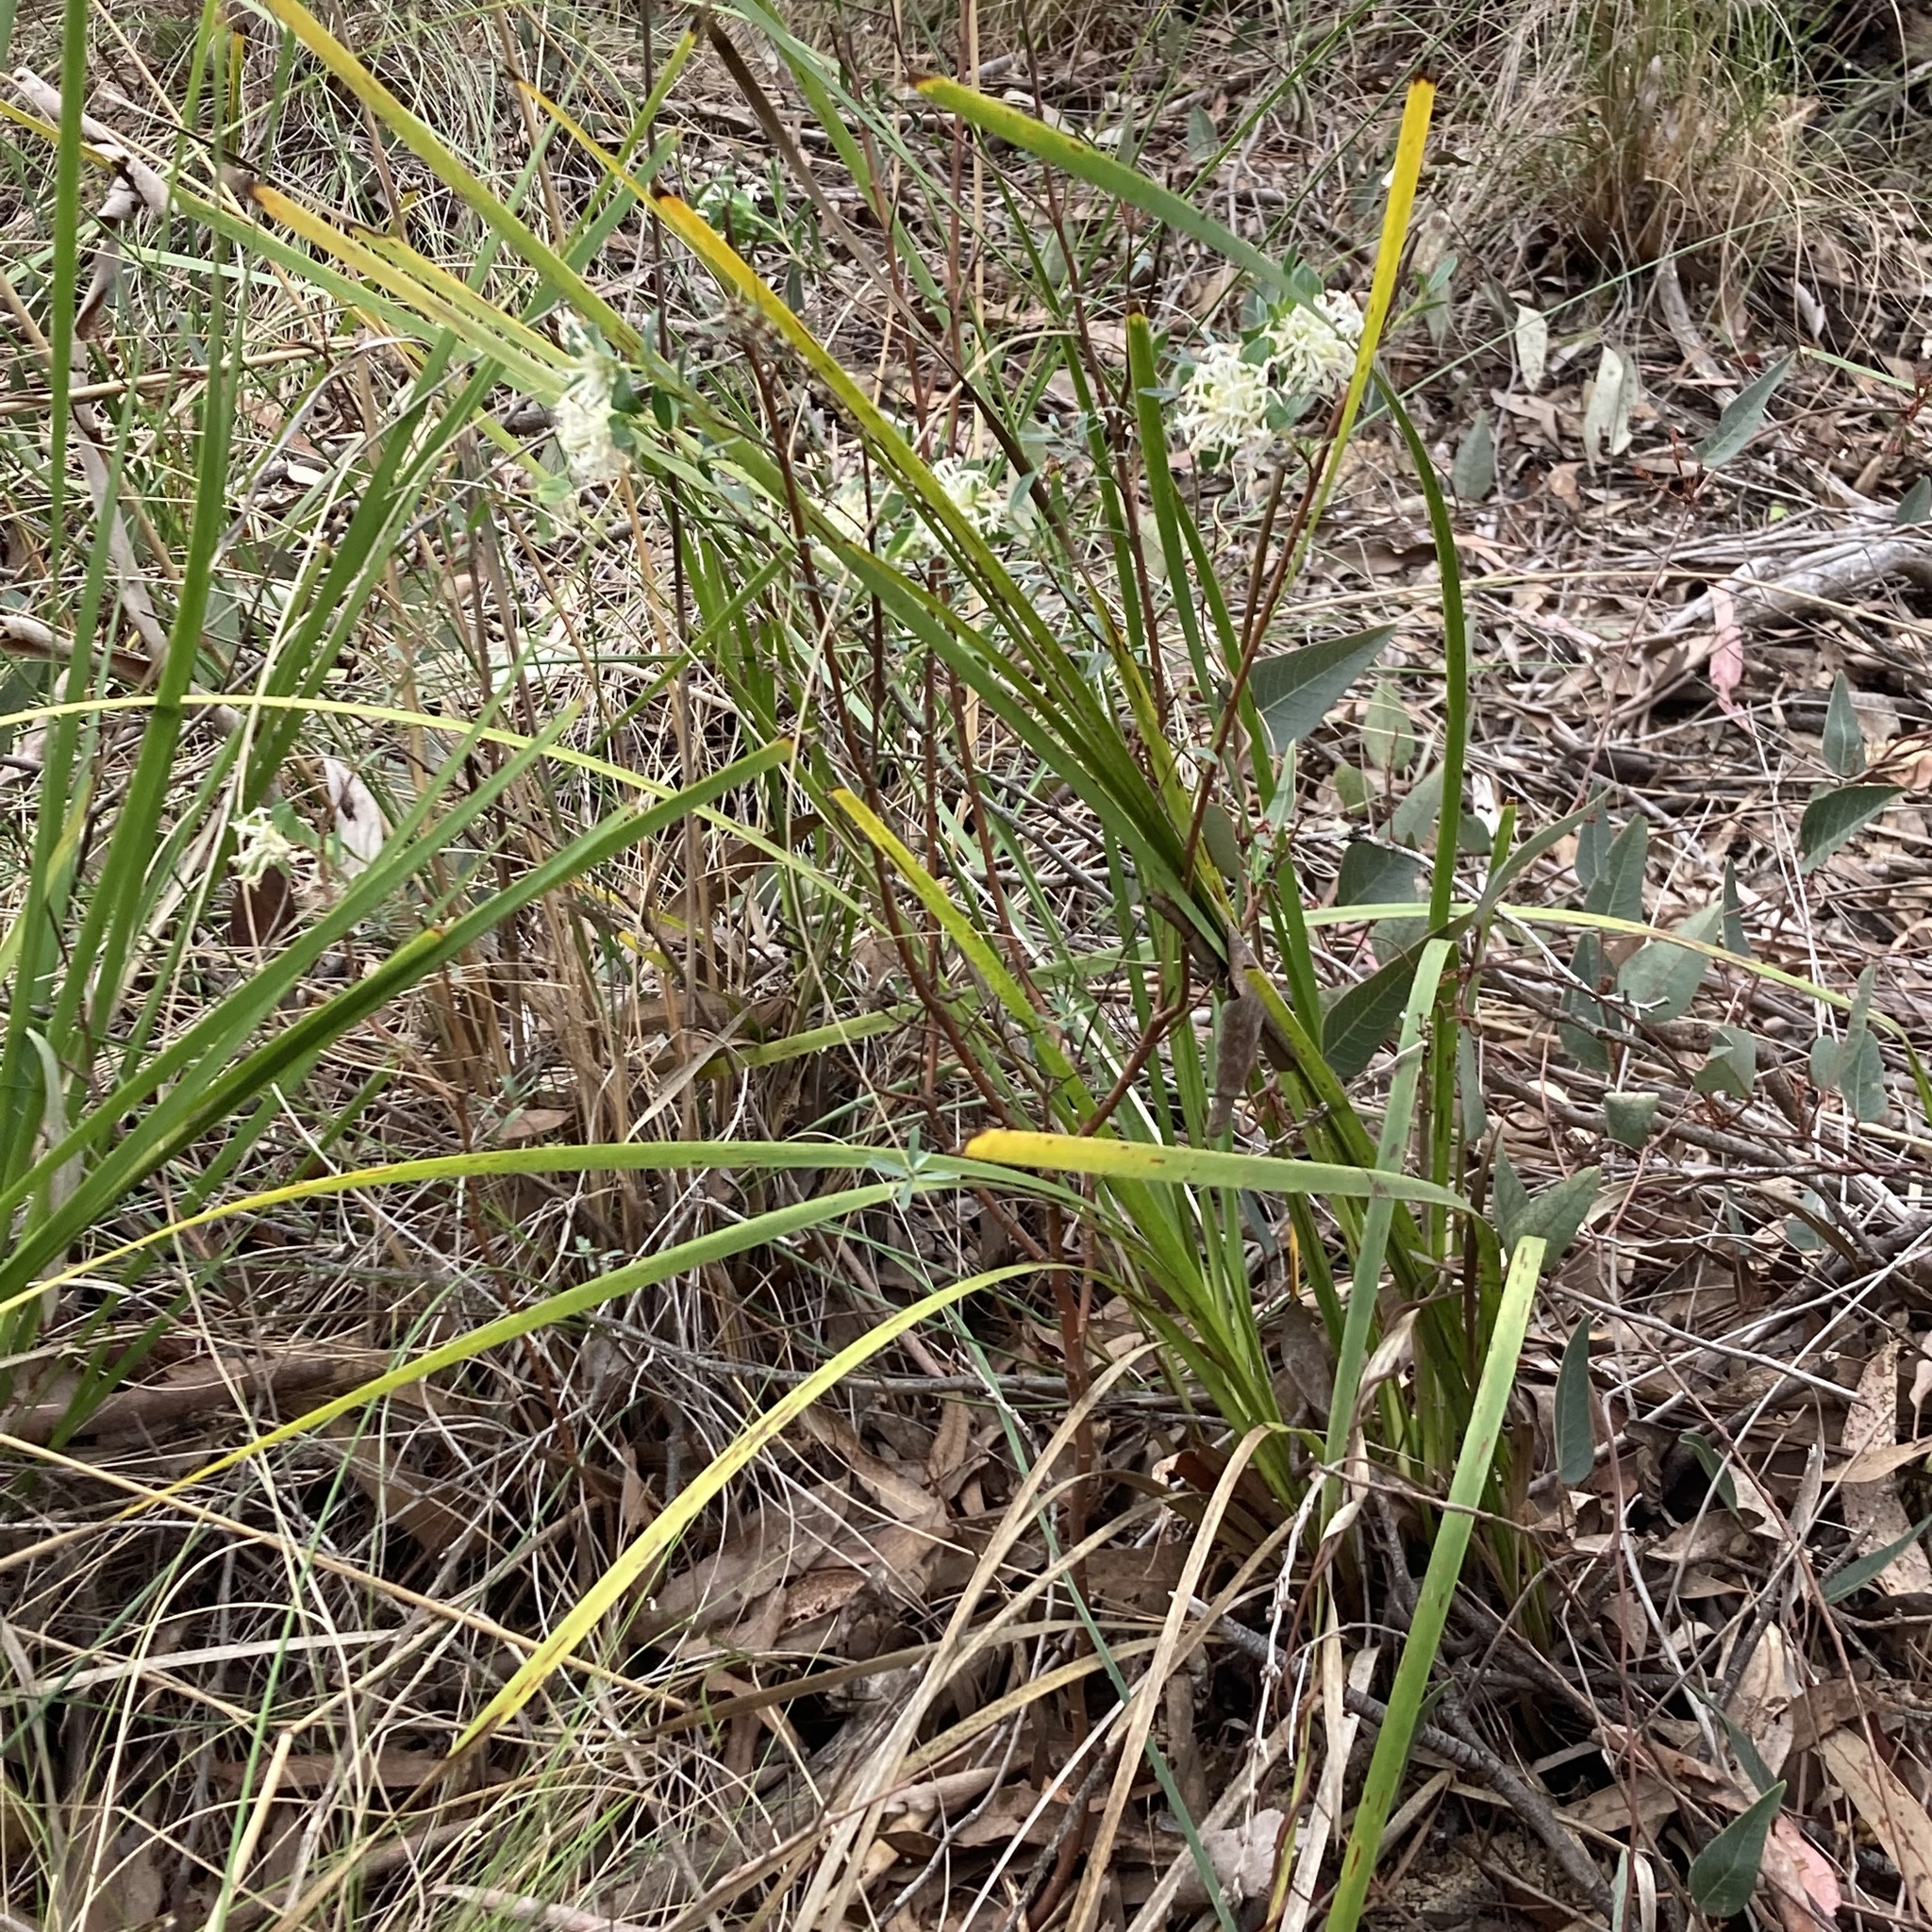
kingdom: Plantae
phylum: Tracheophyta
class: Magnoliopsida
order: Malvales
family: Thymelaeaceae
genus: Pimelea
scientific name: Pimelea linifolia
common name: Queen-of-the-bush
